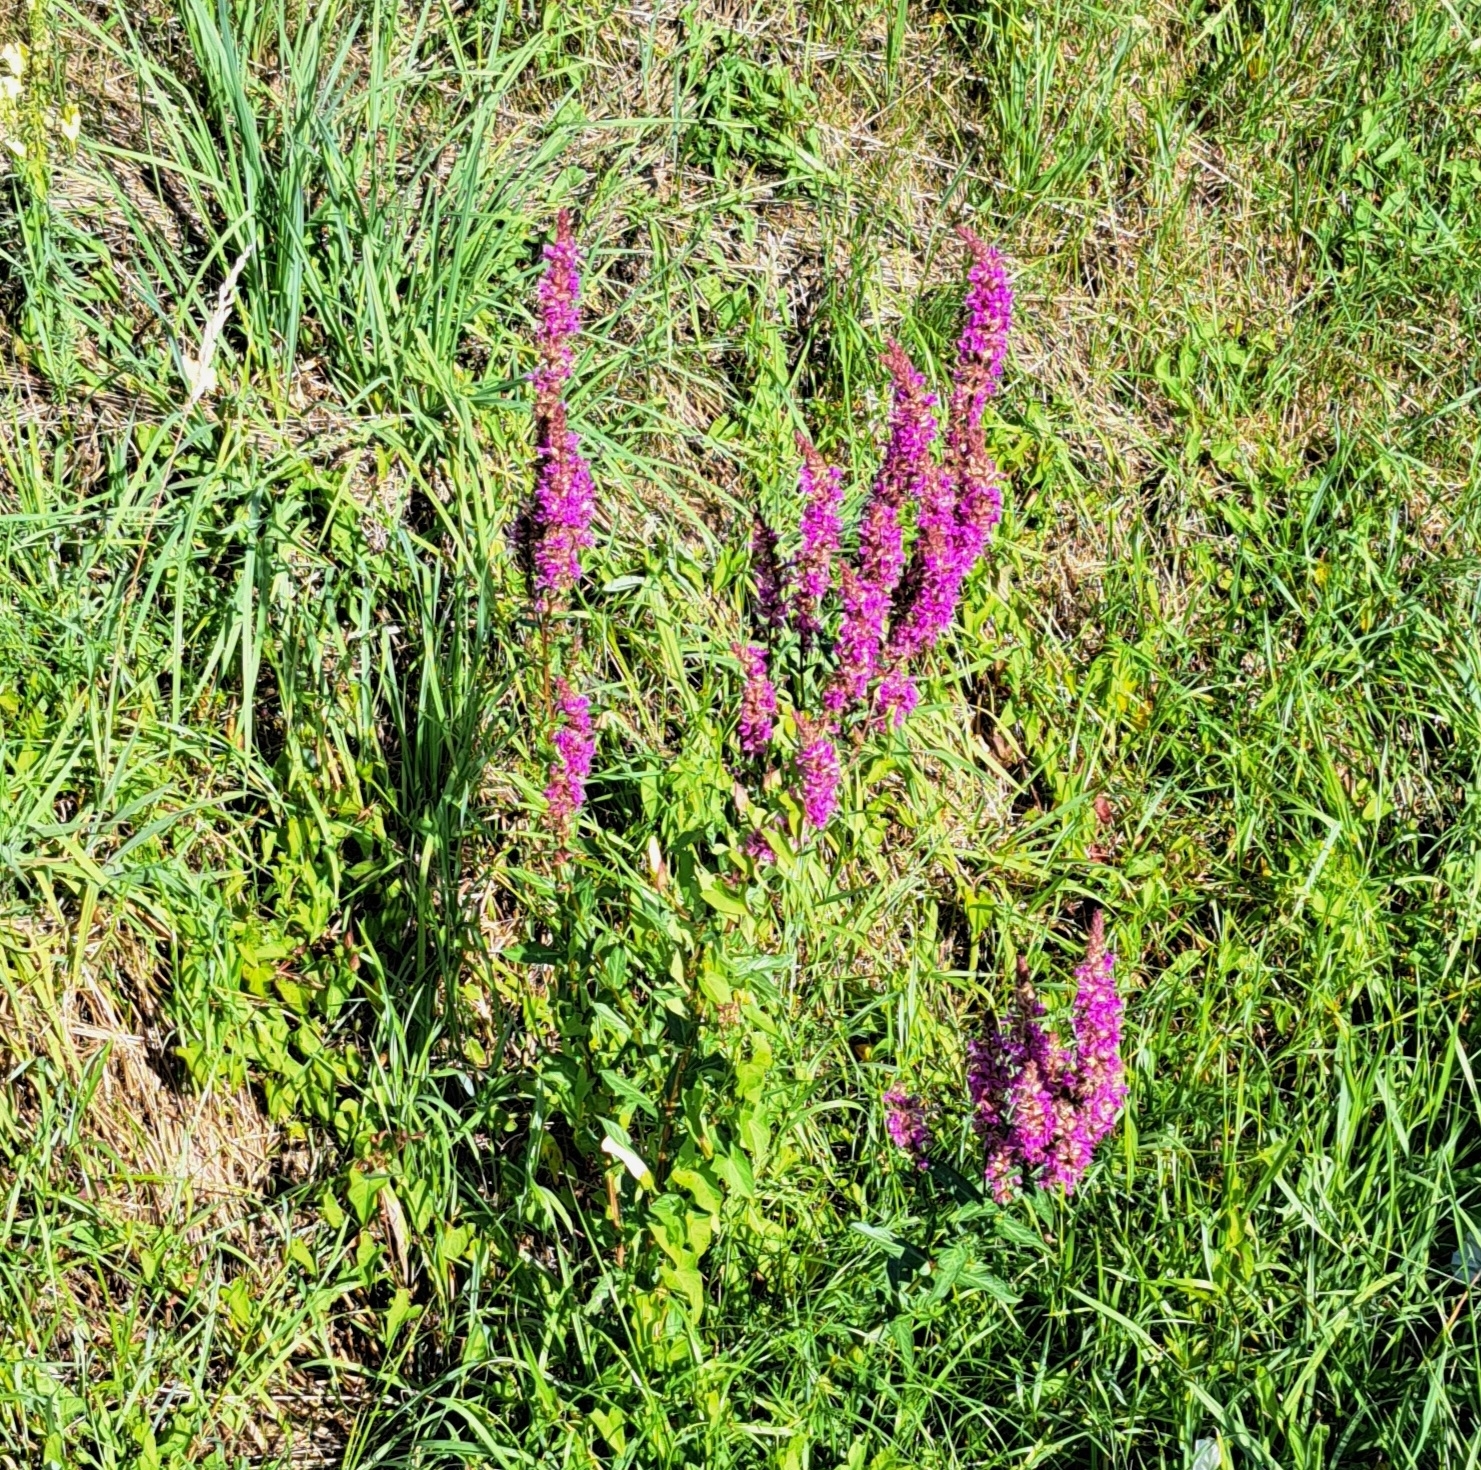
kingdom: Plantae
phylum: Tracheophyta
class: Magnoliopsida
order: Myrtales
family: Lythraceae
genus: Lythrum
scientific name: Lythrum salicaria
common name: Purple loosestrife
